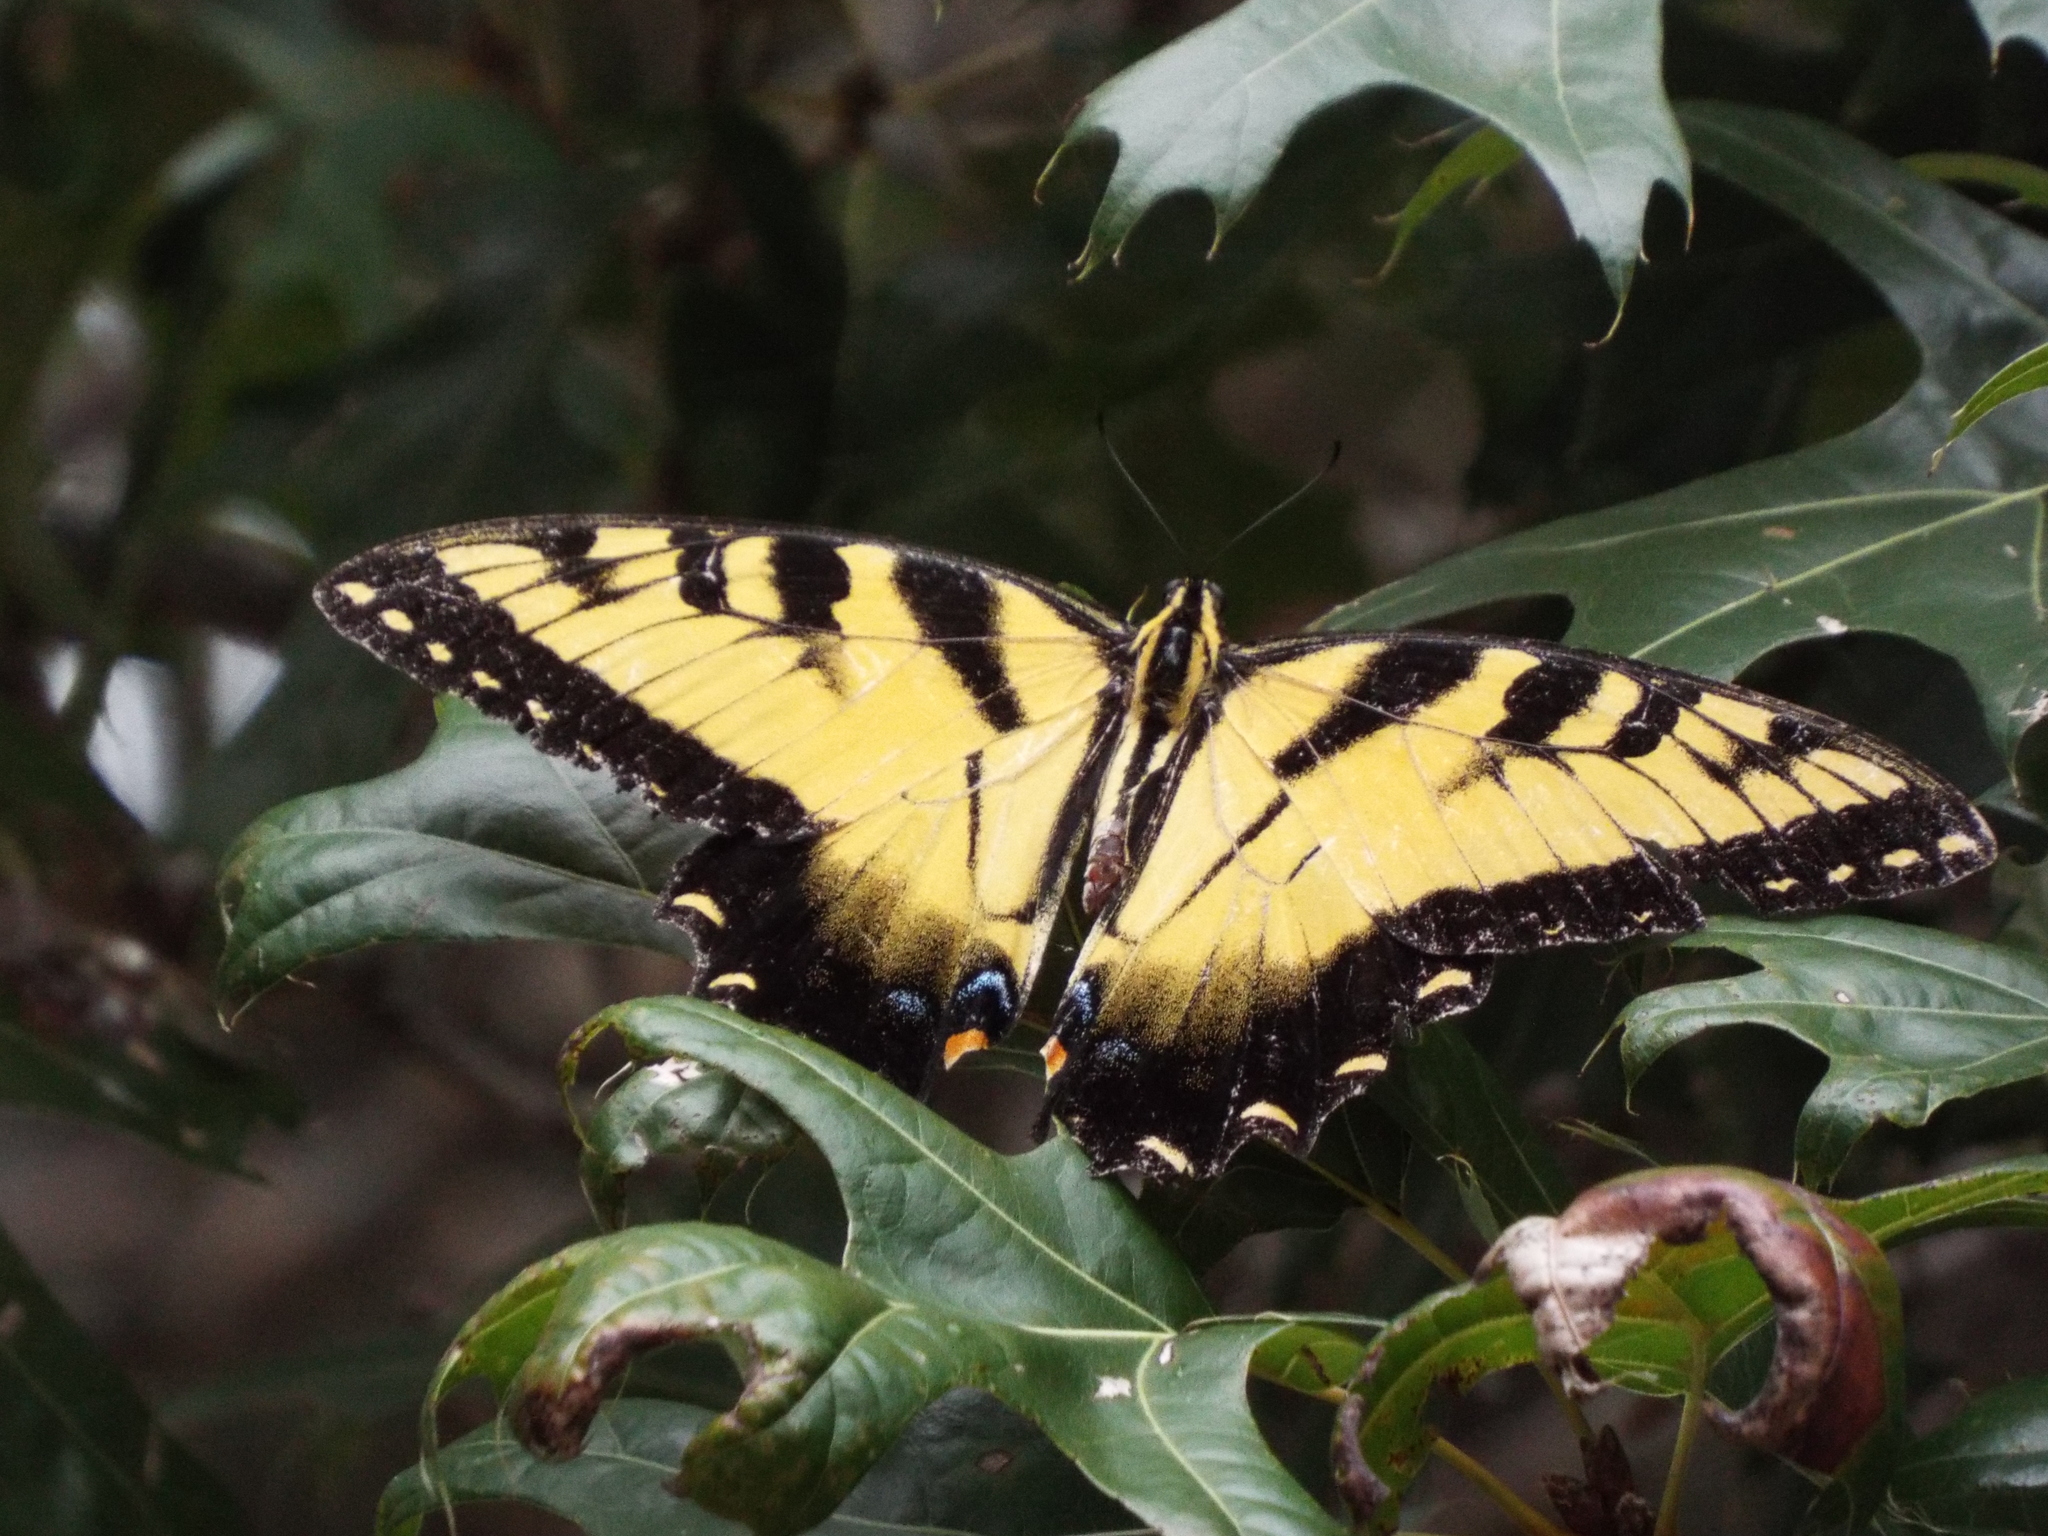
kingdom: Animalia
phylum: Arthropoda
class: Insecta
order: Lepidoptera
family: Papilionidae
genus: Papilio
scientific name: Papilio glaucus
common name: Tiger swallowtail
